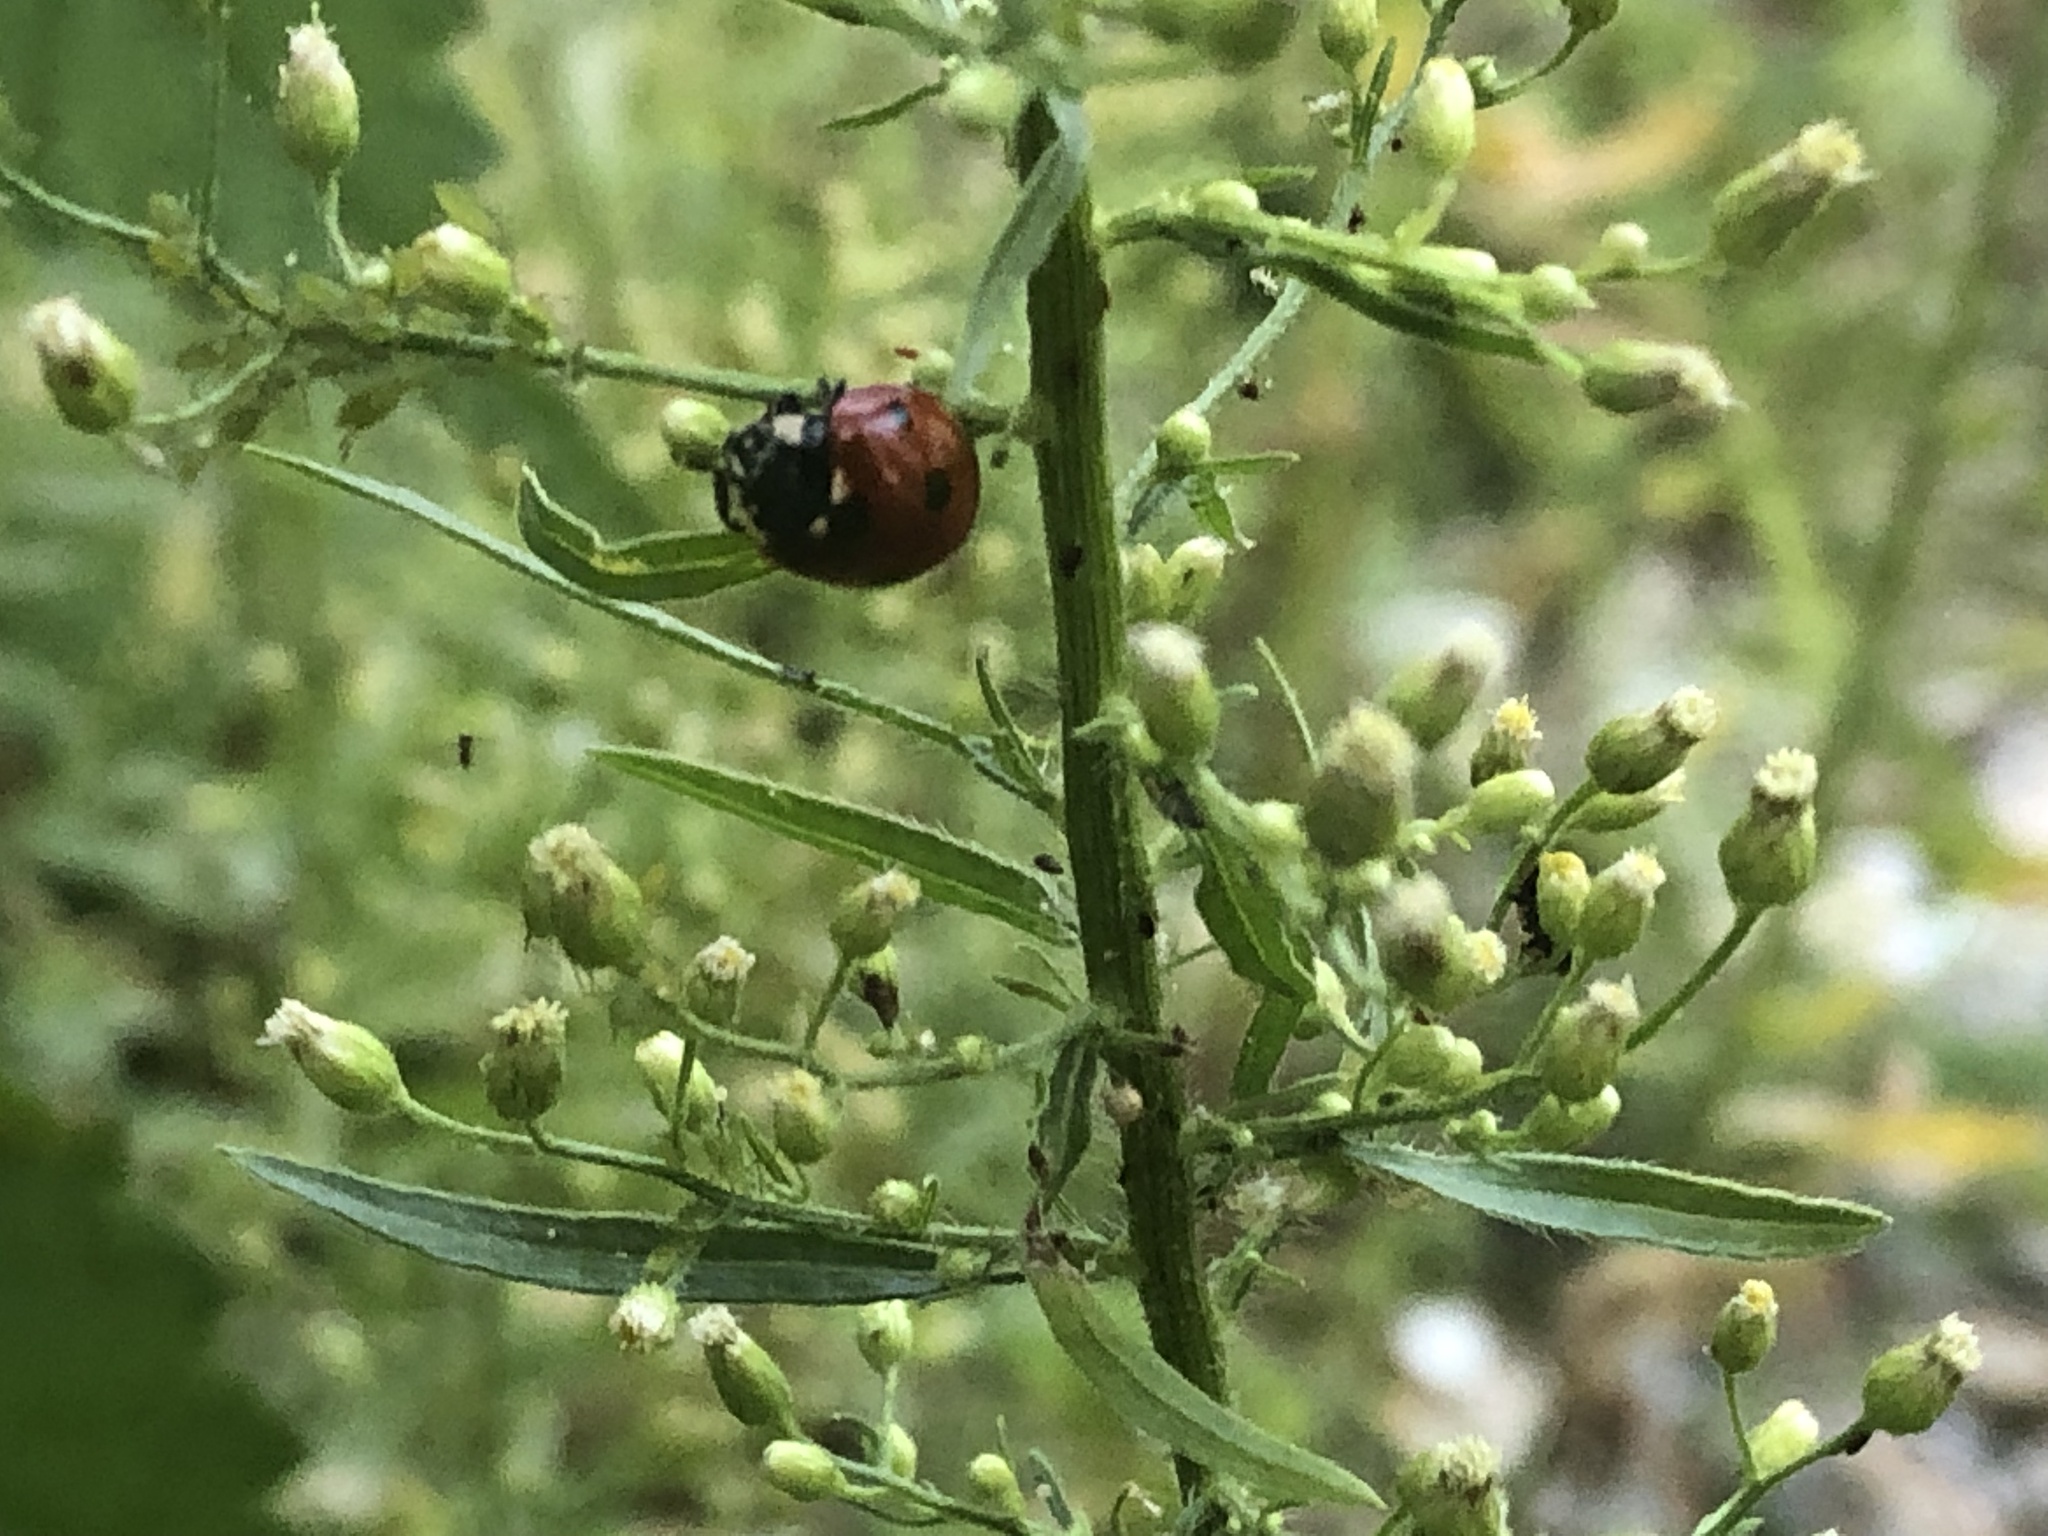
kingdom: Animalia
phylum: Arthropoda
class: Insecta
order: Coleoptera
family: Coccinellidae
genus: Coccinella
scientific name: Coccinella septempunctata
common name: Sevenspotted lady beetle
